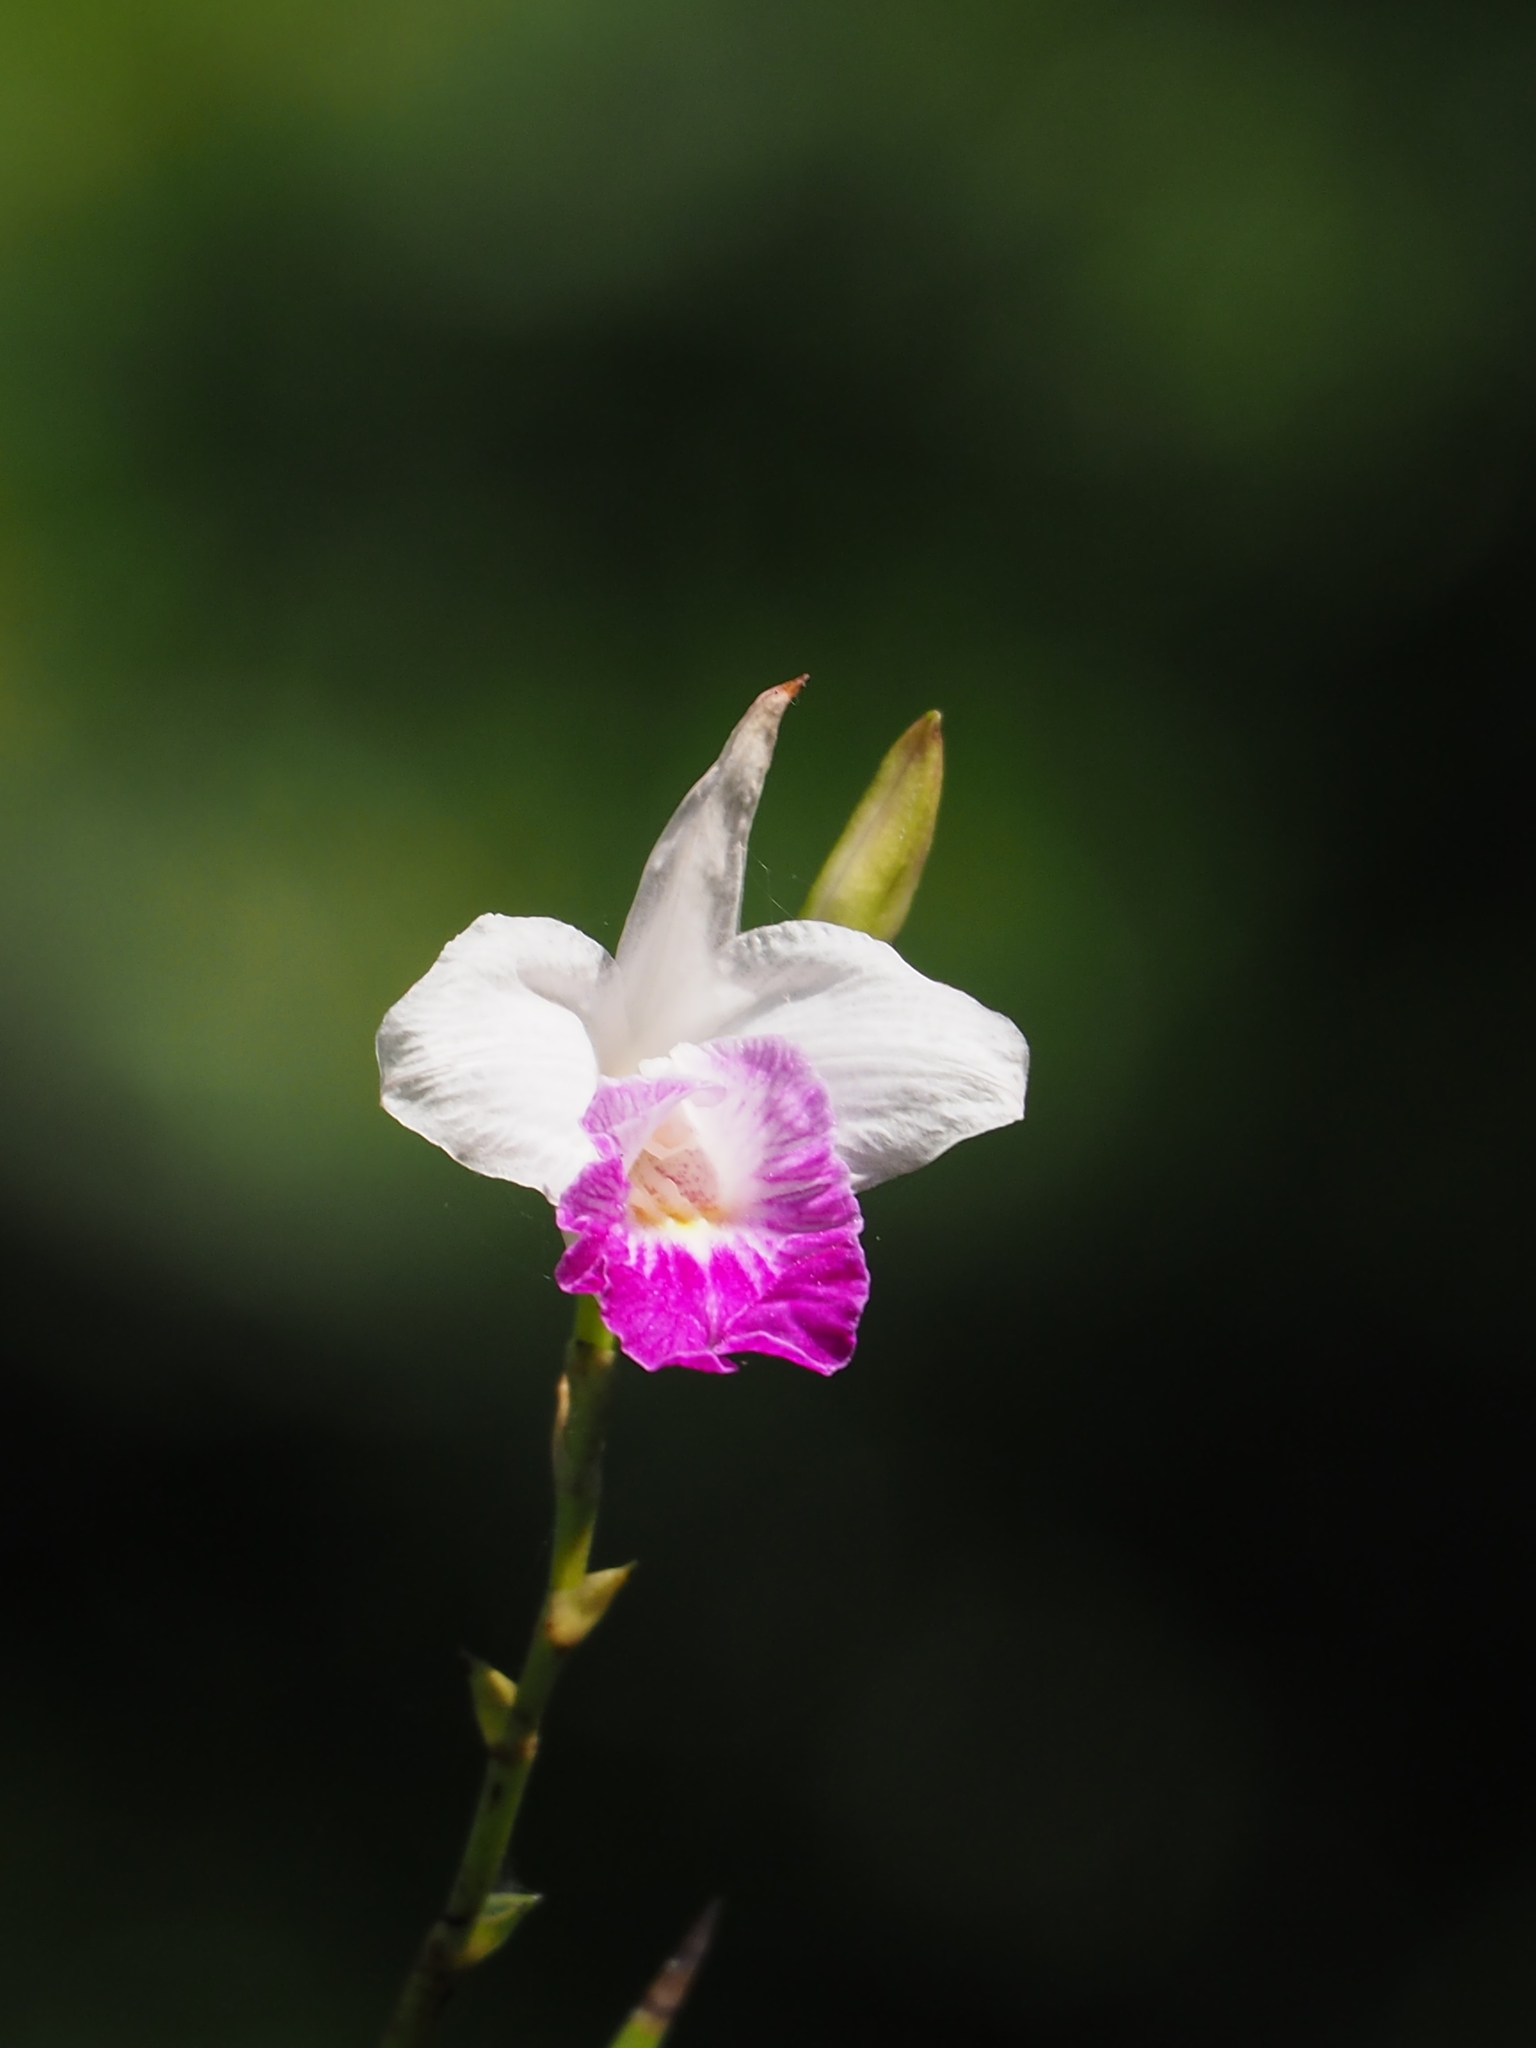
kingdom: Plantae
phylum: Tracheophyta
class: Liliopsida
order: Asparagales
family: Orchidaceae
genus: Arundina
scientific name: Arundina graminifolia
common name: Bamboo orchid
